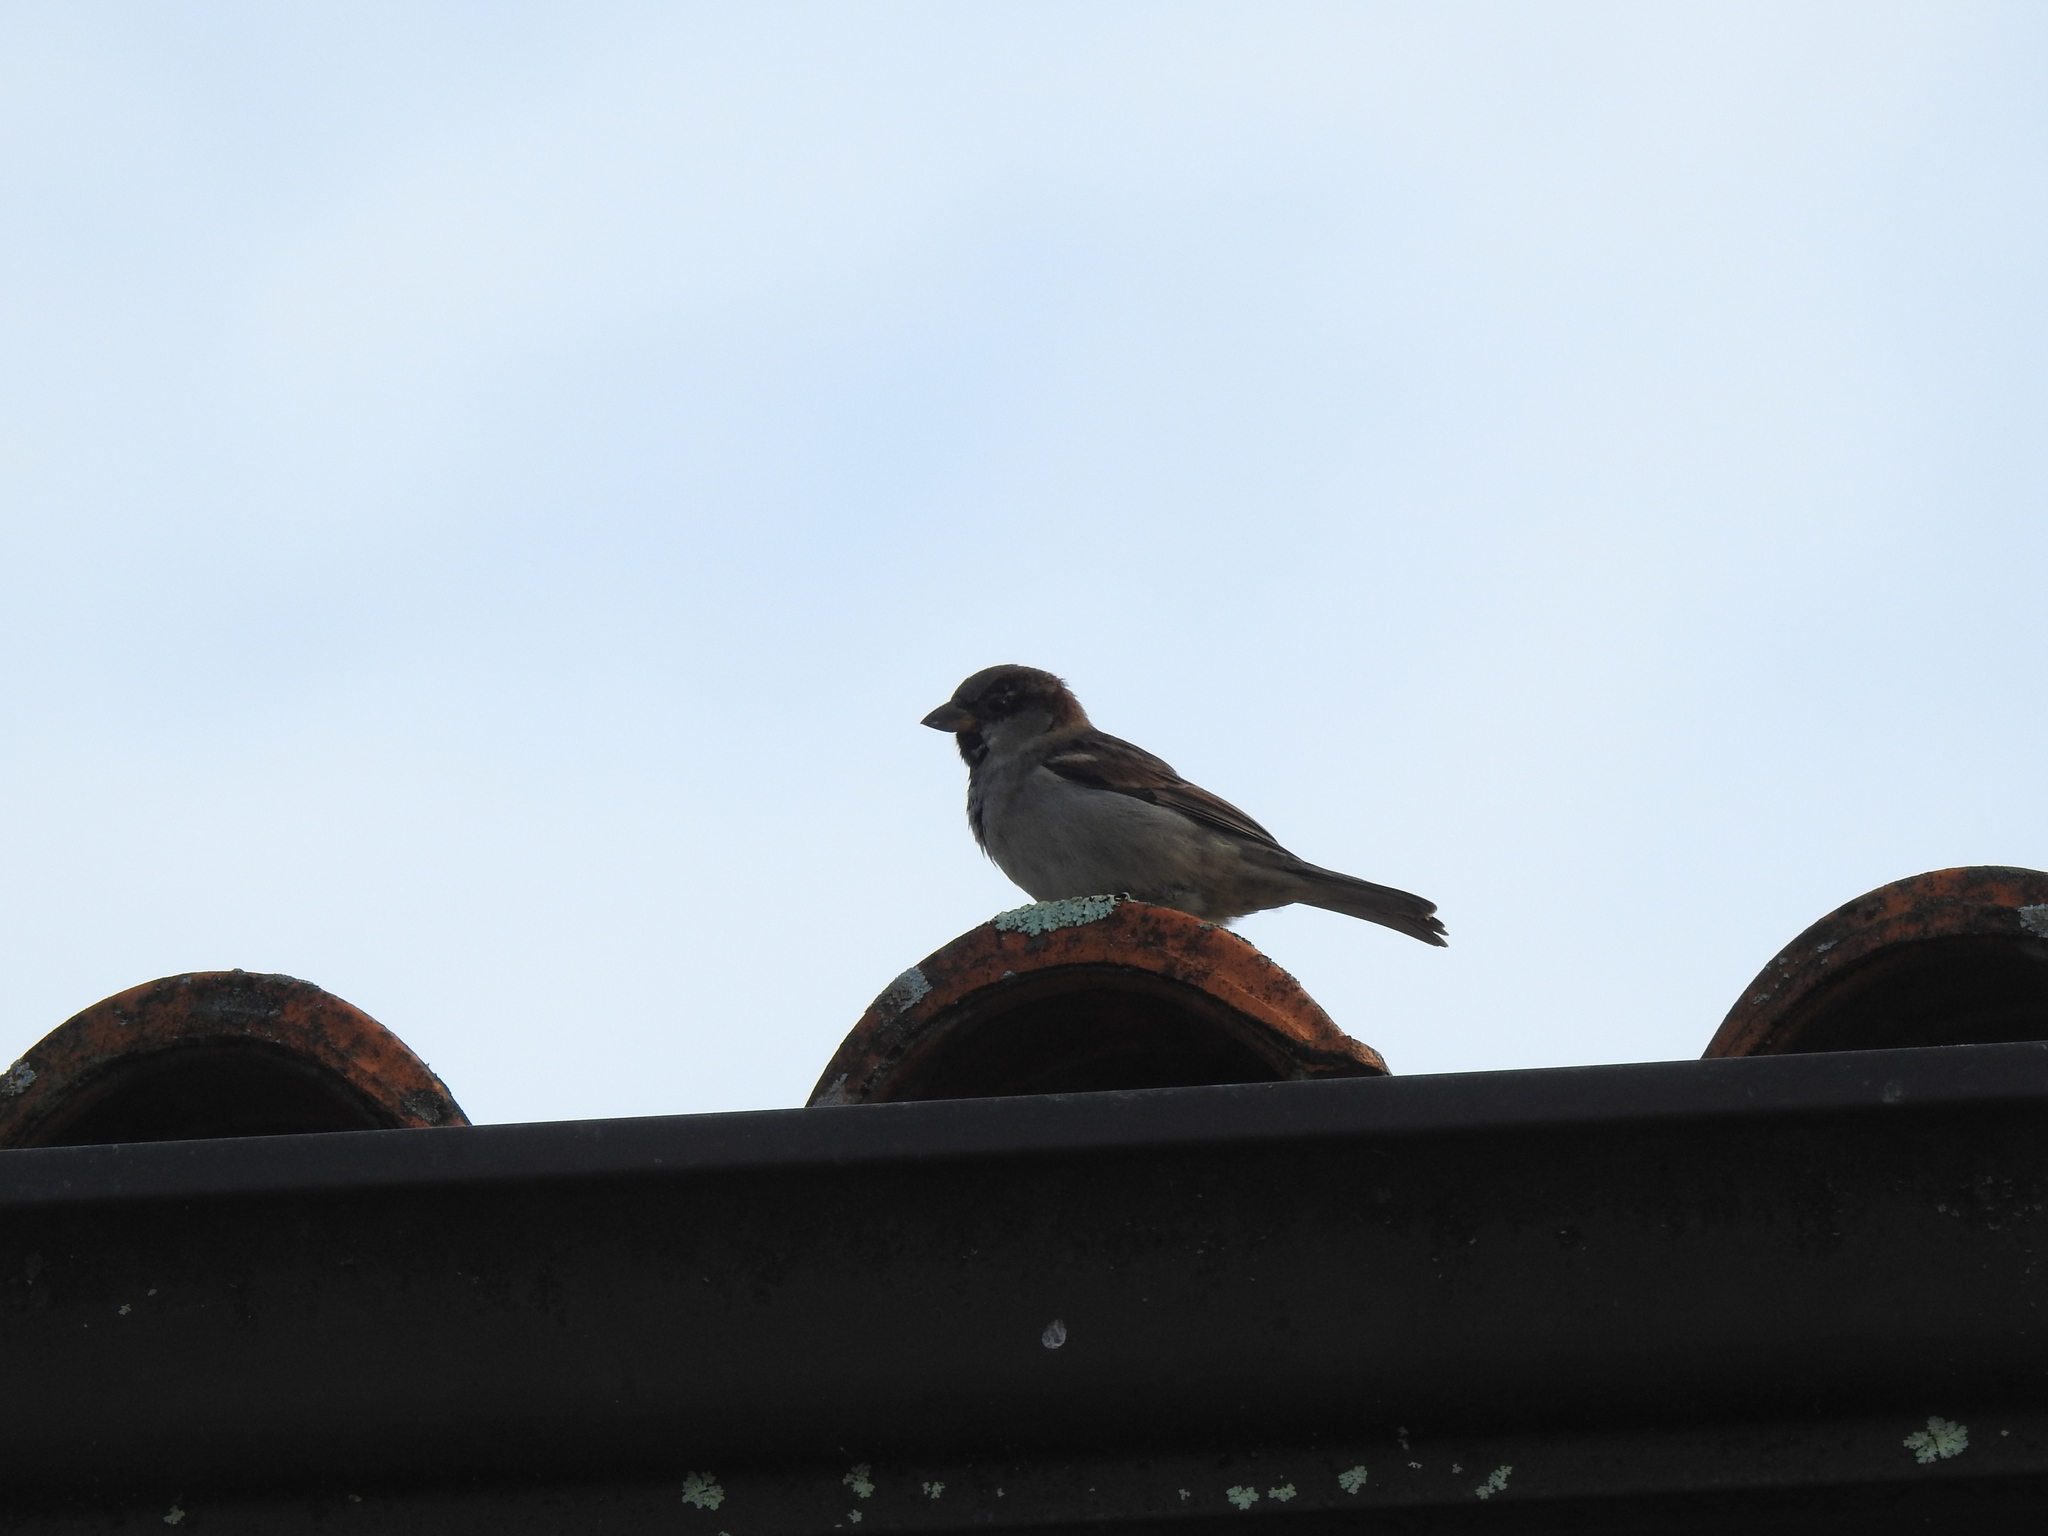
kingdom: Animalia
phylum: Chordata
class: Aves
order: Passeriformes
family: Passeridae
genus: Passer
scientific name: Passer domesticus
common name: House sparrow
